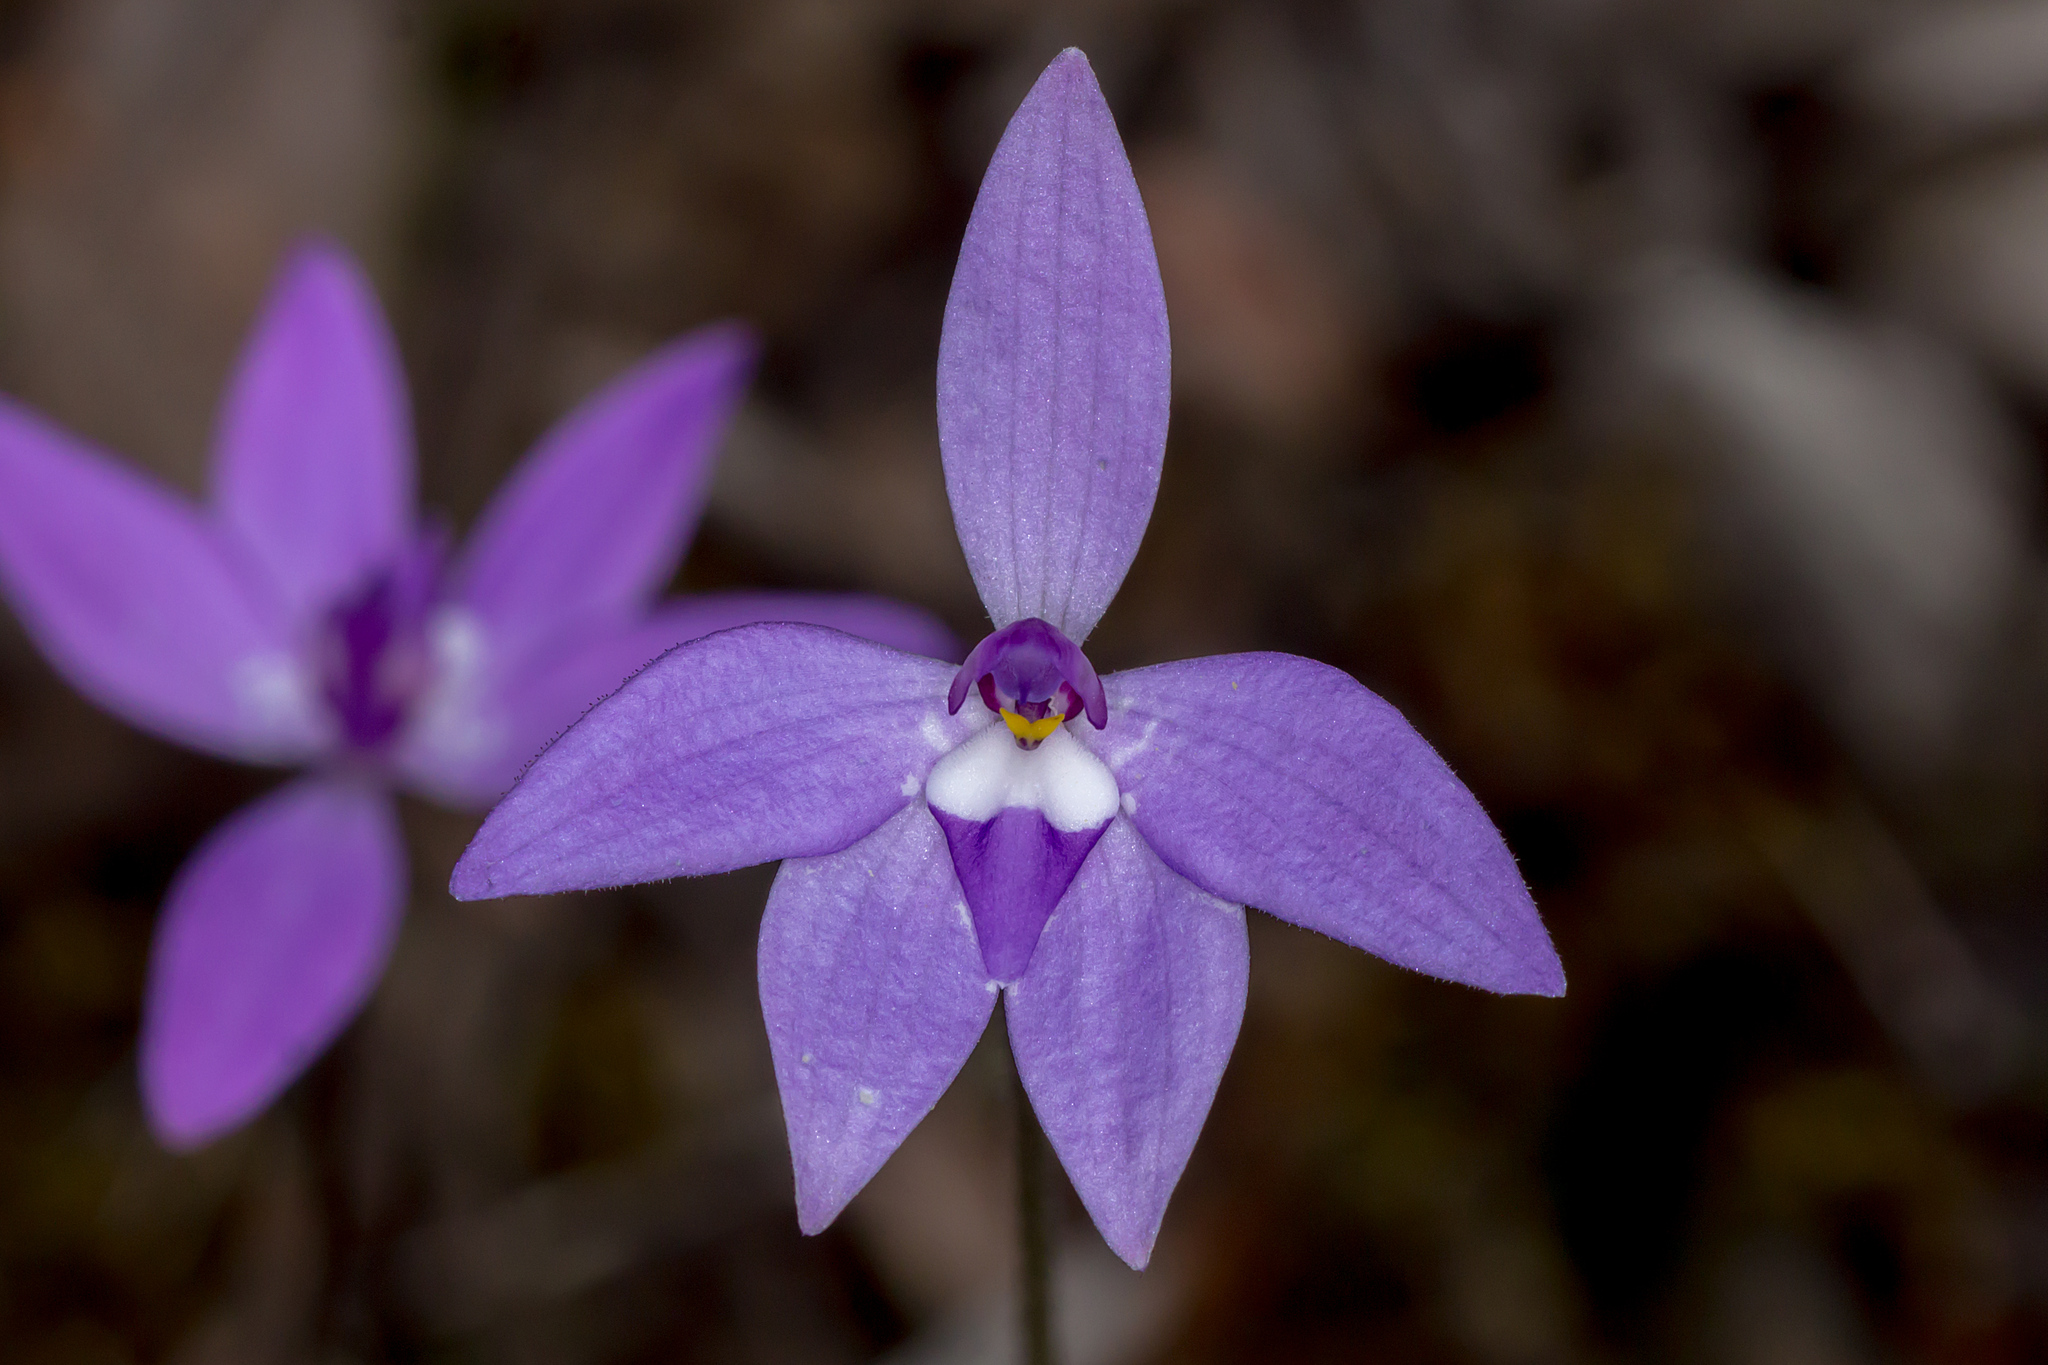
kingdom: Plantae
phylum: Tracheophyta
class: Liliopsida
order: Asparagales
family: Orchidaceae
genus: Caladenia
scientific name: Caladenia major
